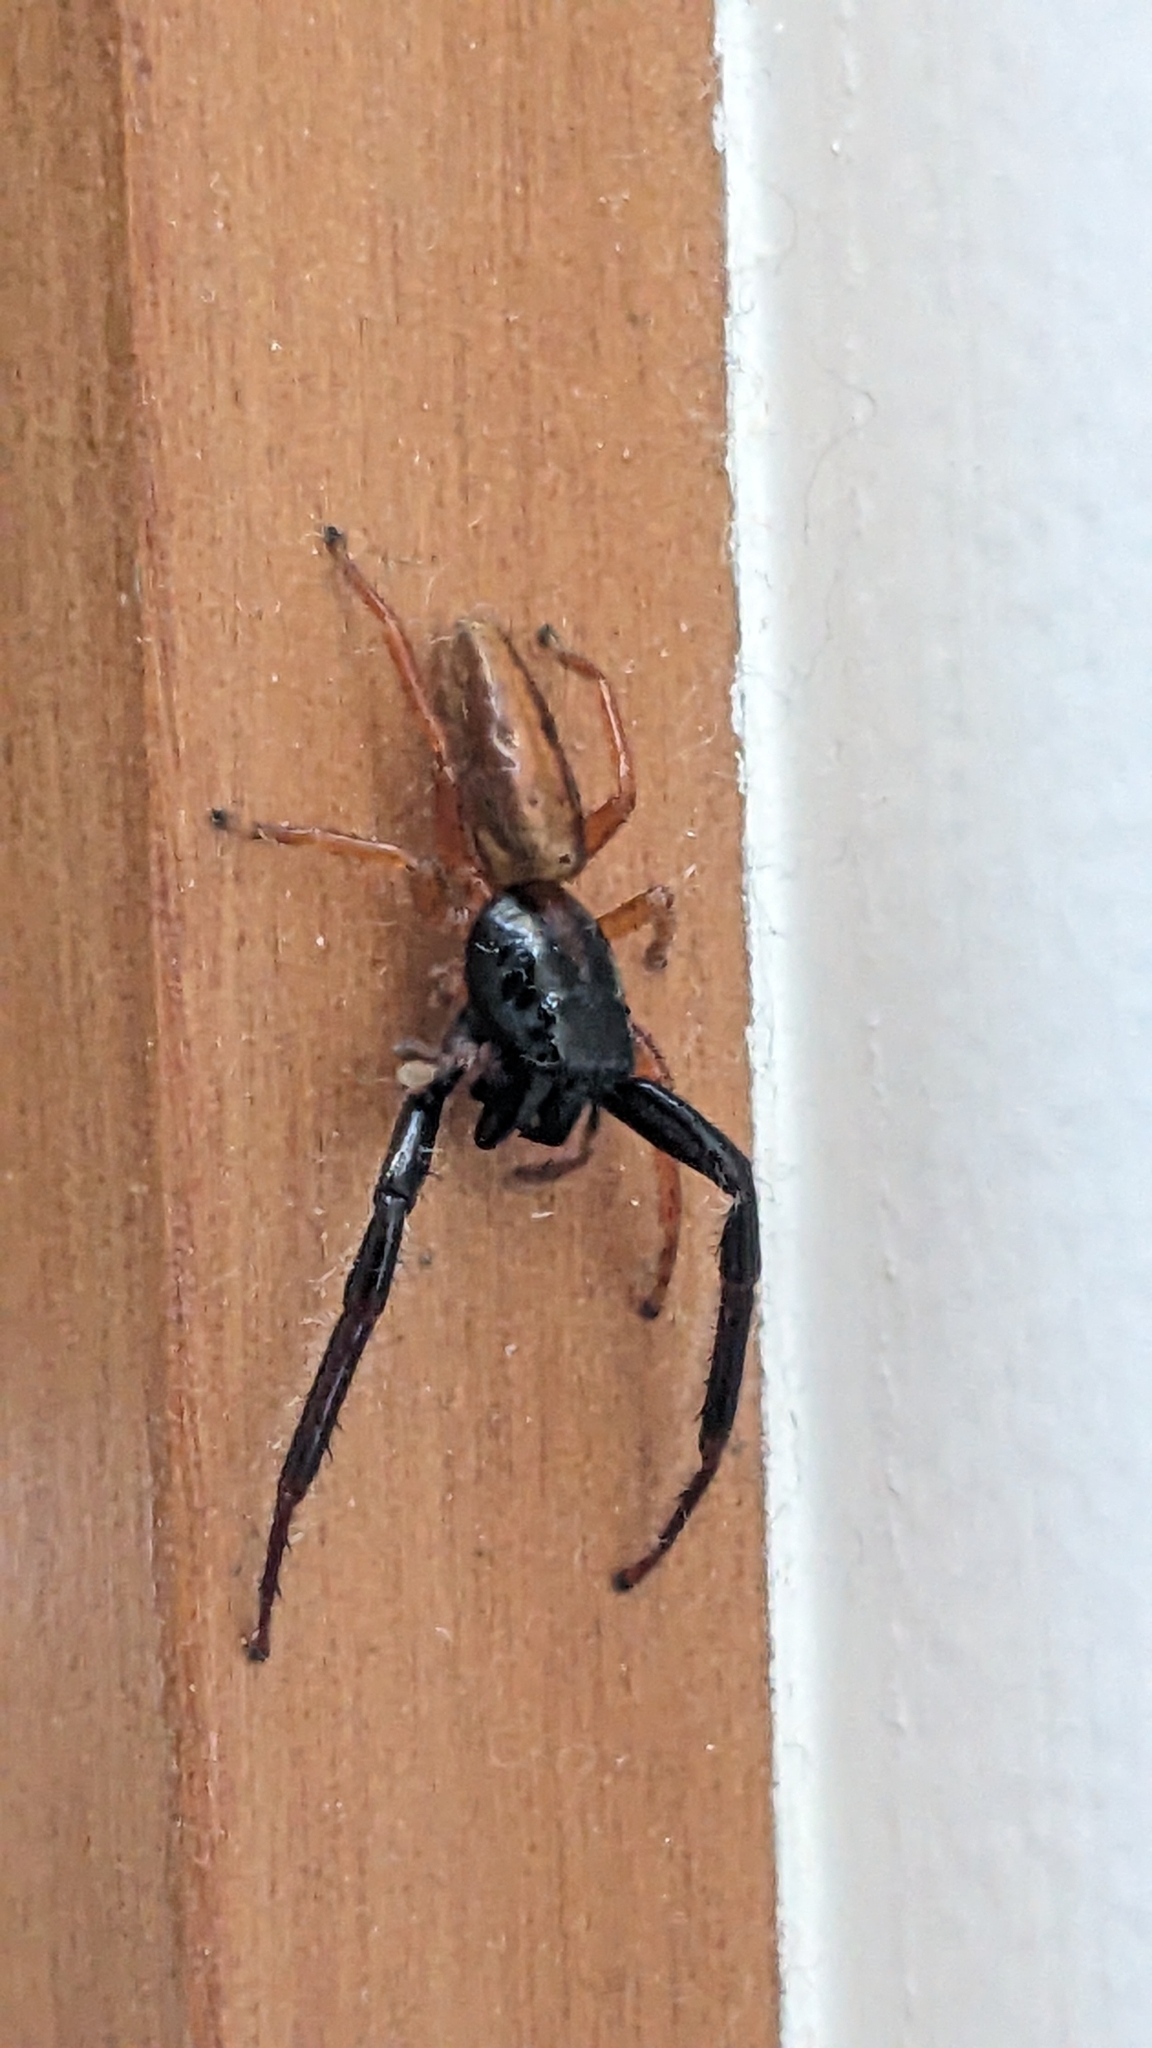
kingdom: Animalia
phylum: Arthropoda
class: Arachnida
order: Araneae
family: Salticidae
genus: Trite
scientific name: Trite planiceps
